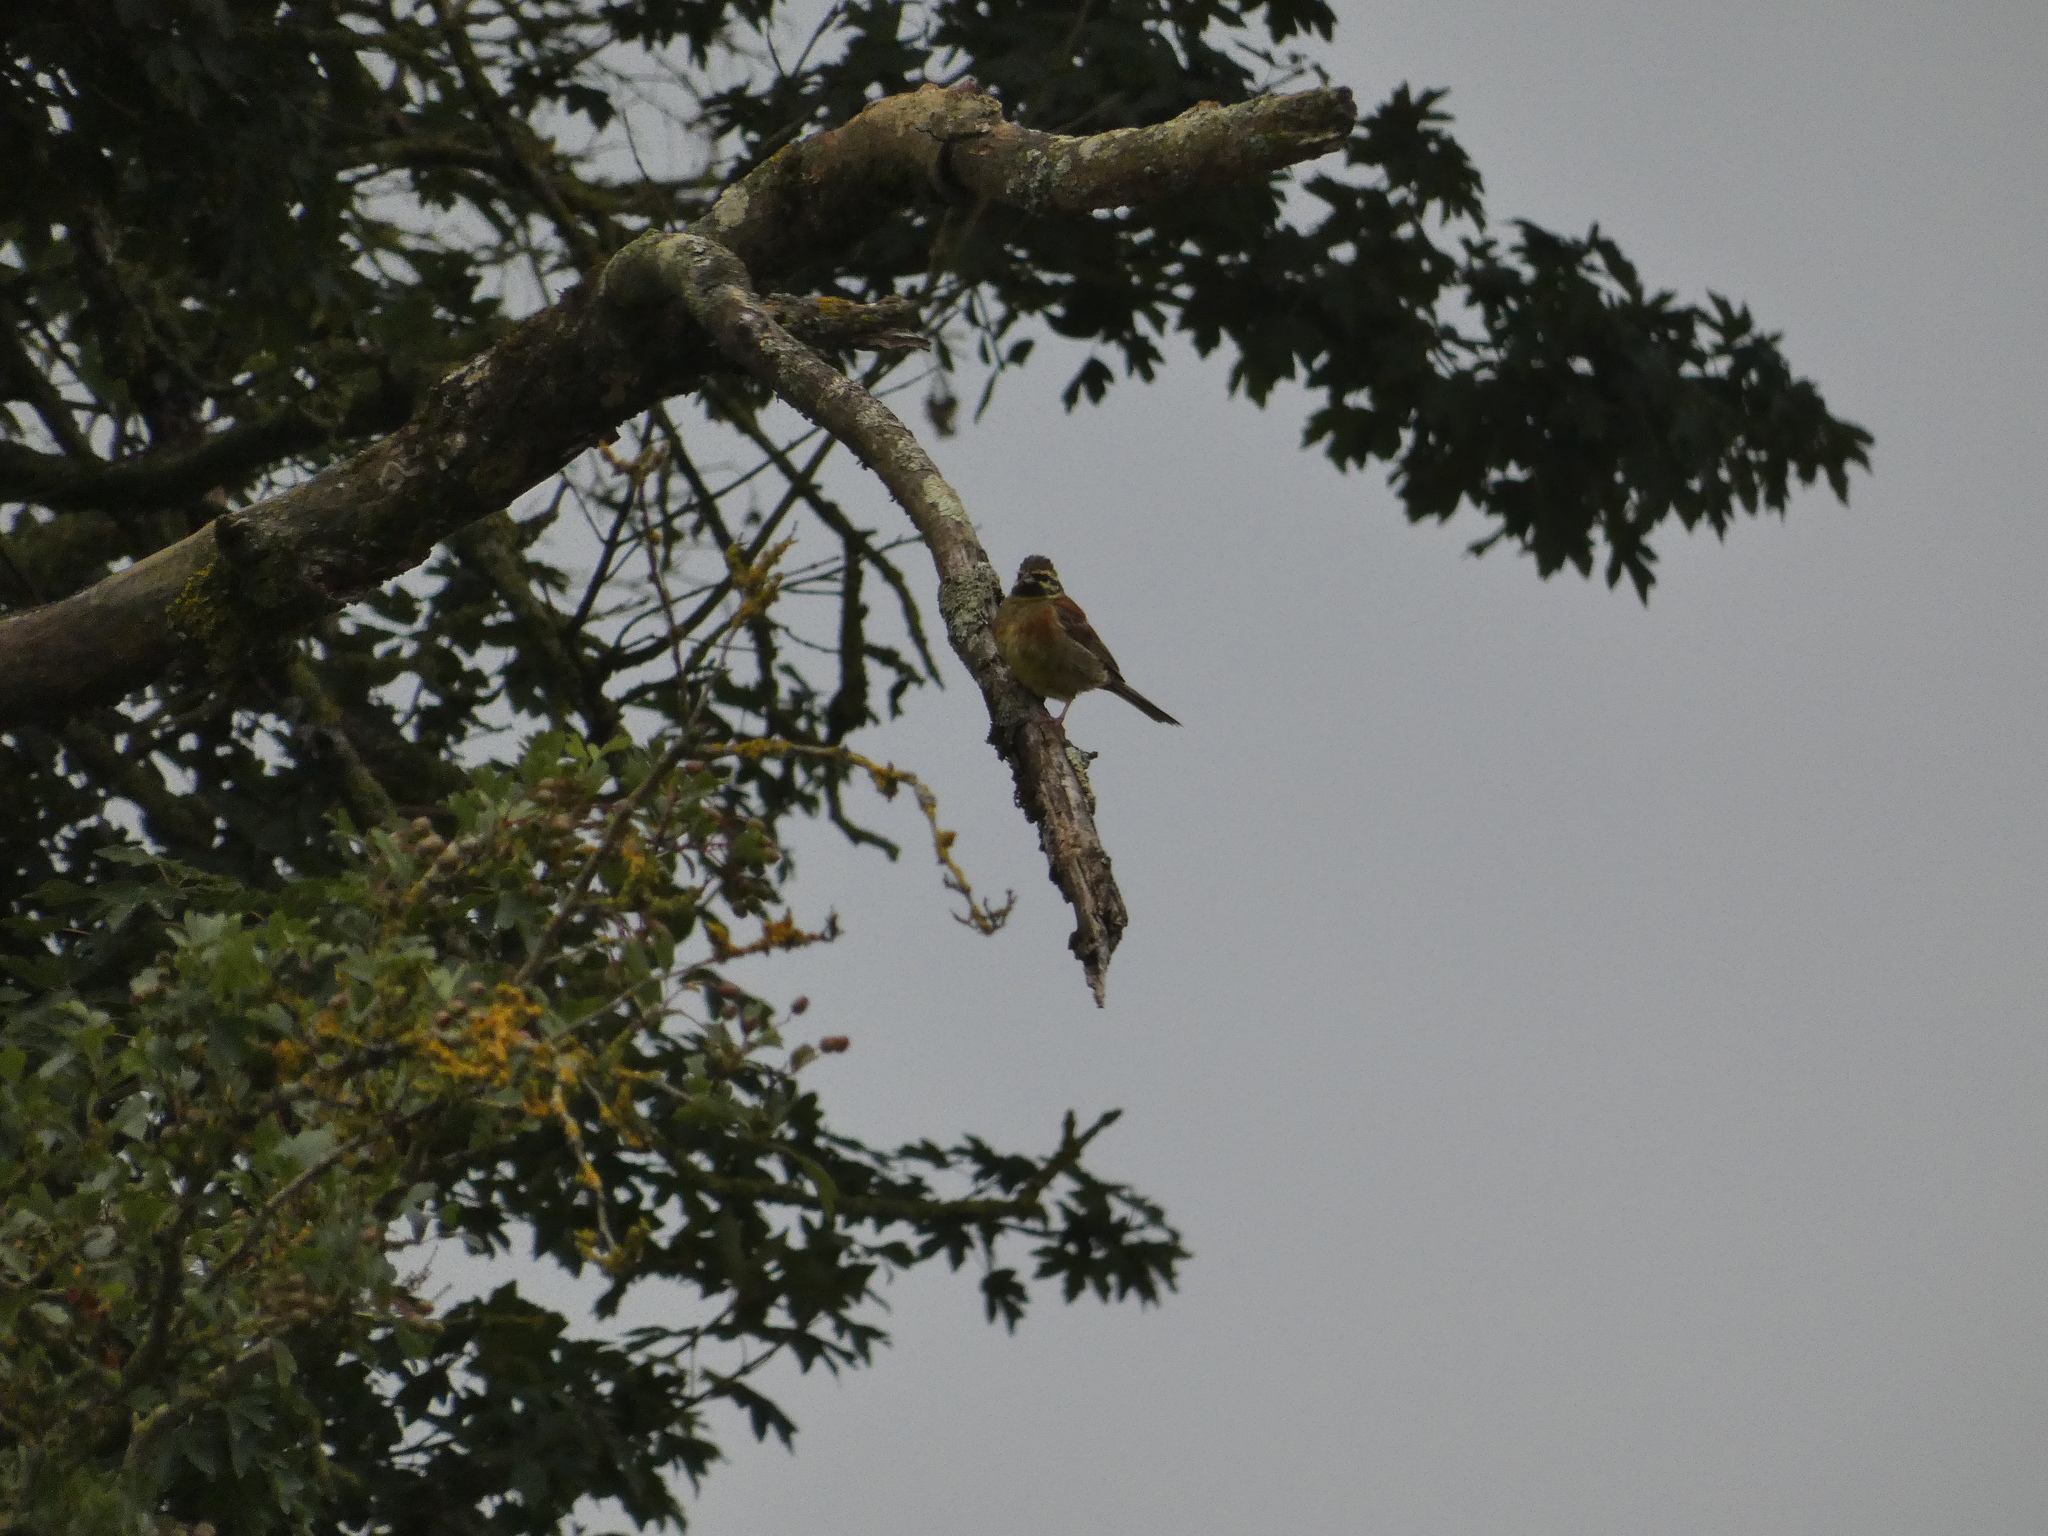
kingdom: Animalia
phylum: Chordata
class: Aves
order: Passeriformes
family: Emberizidae
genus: Emberiza
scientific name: Emberiza cirlus
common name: Cirl bunting
